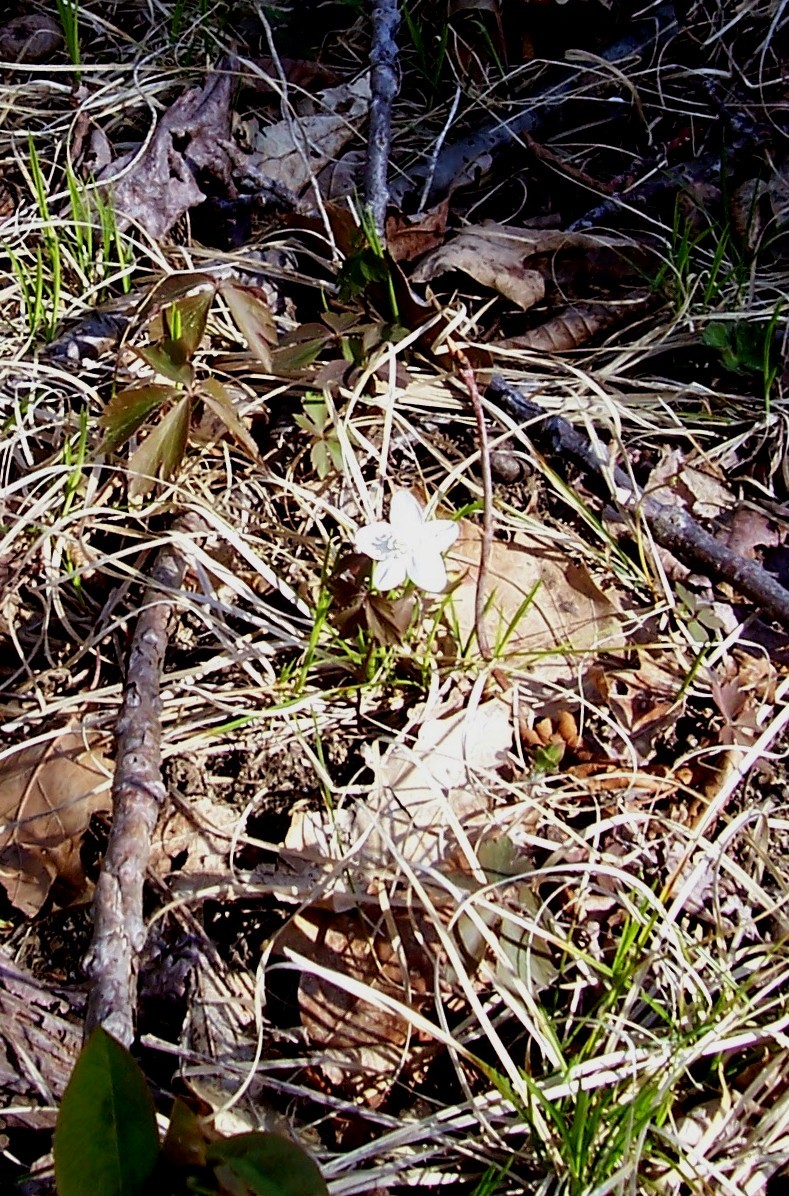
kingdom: Plantae
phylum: Tracheophyta
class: Magnoliopsida
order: Ranunculales
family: Ranunculaceae
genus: Anemone
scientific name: Anemone quinquefolia
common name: Wood anemone
